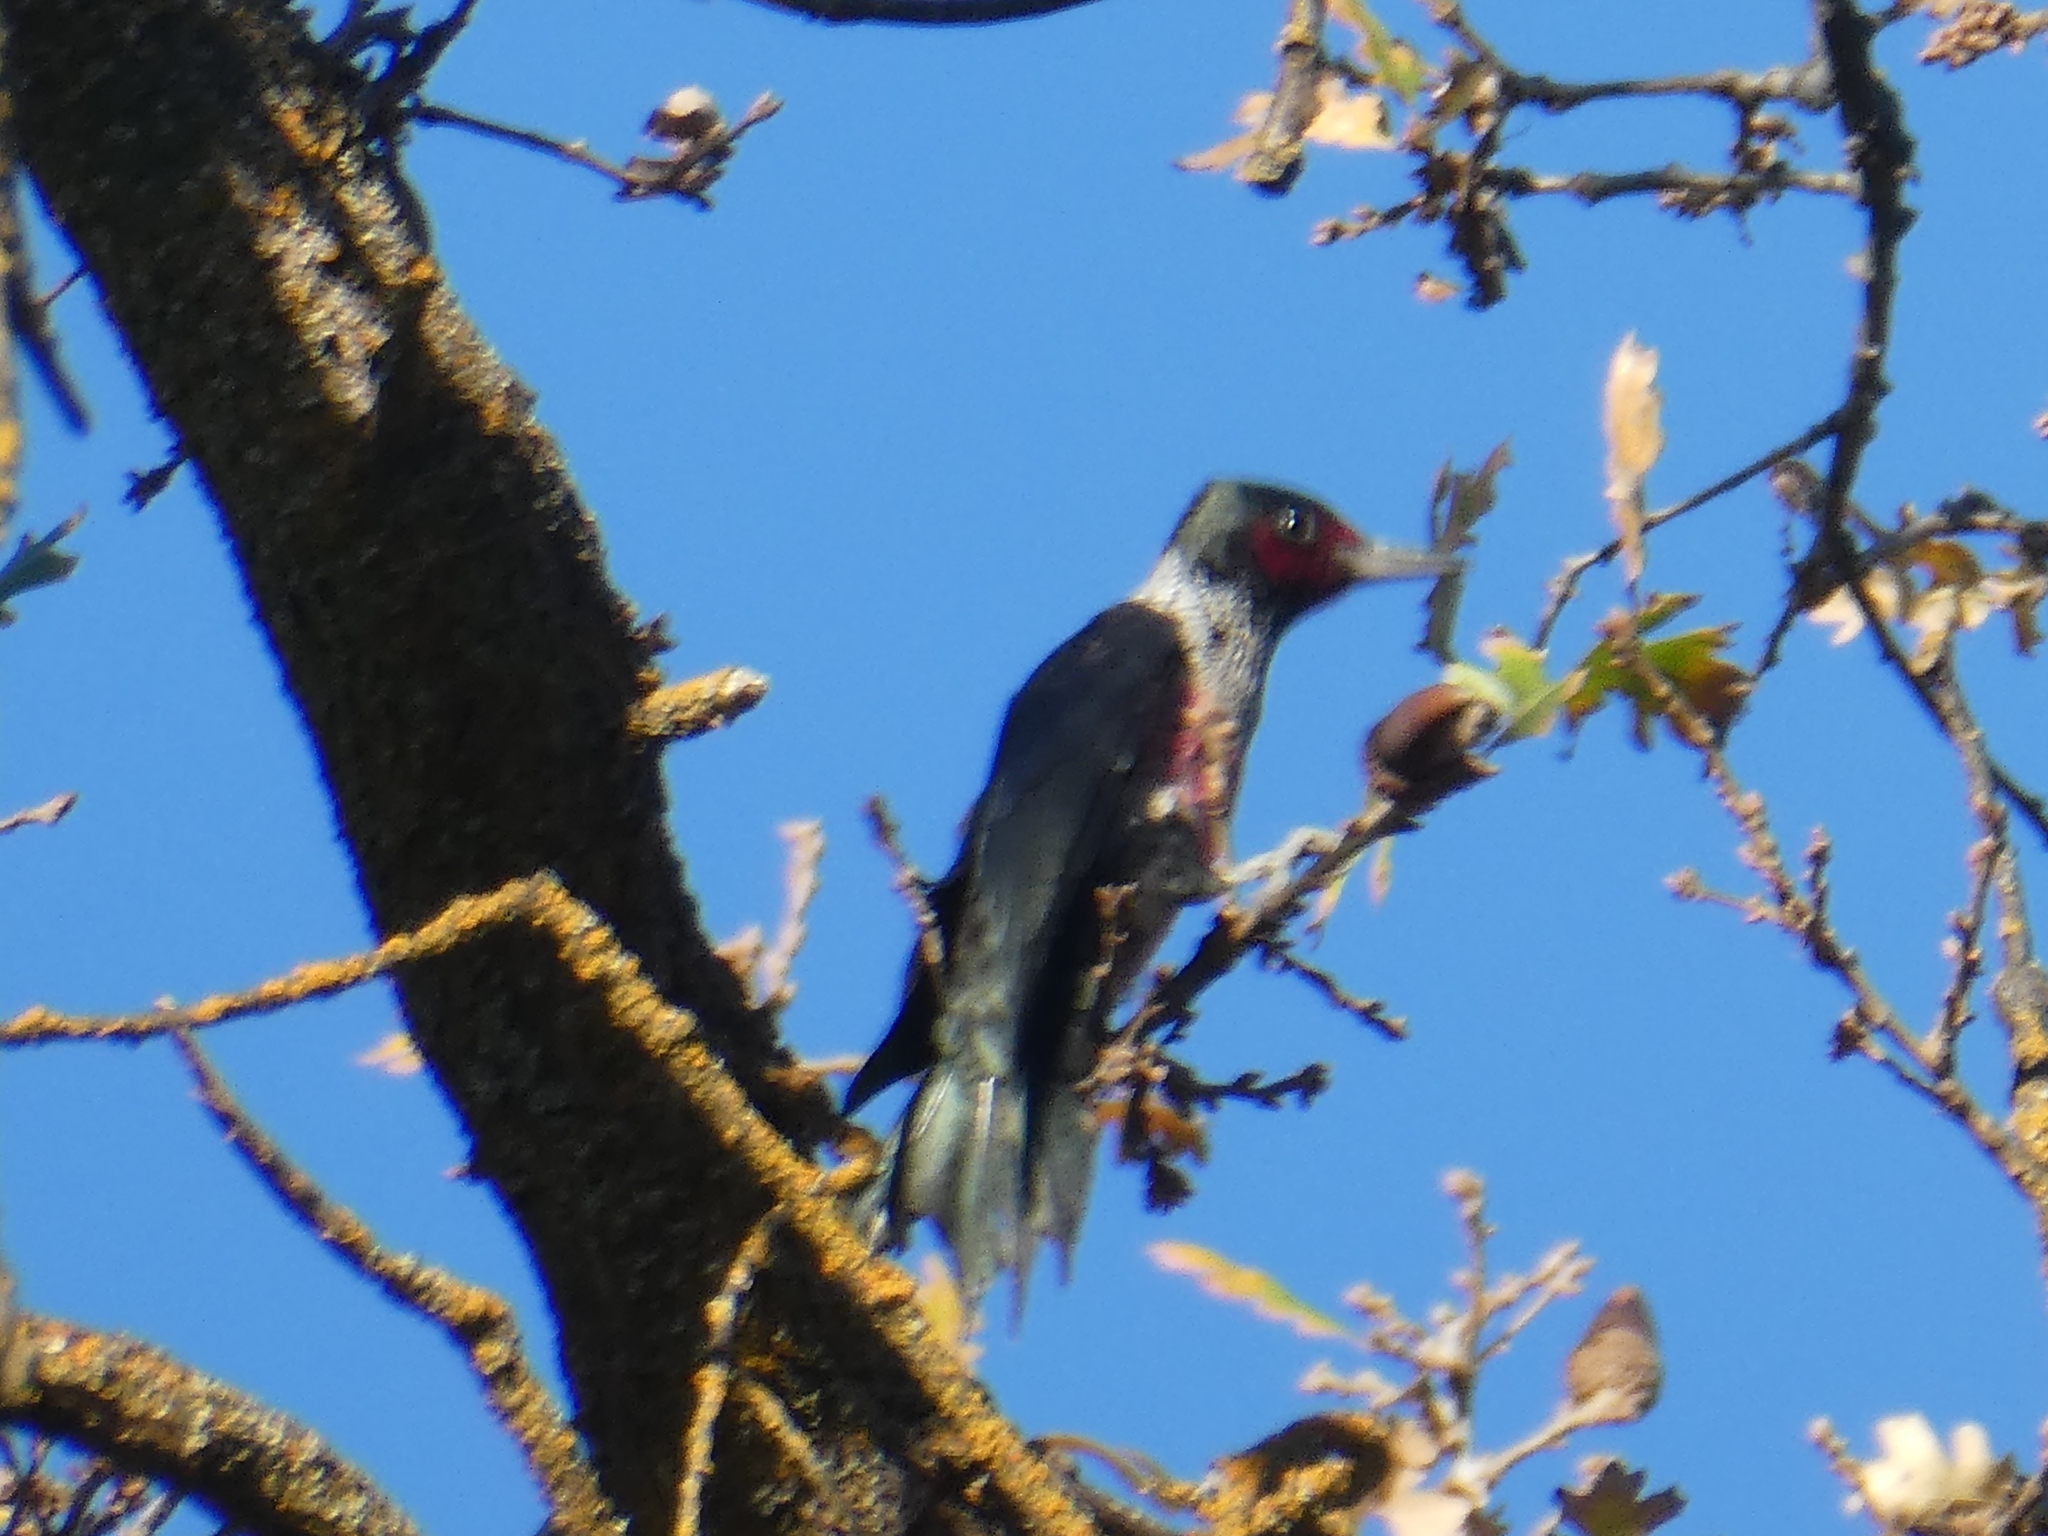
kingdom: Animalia
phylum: Chordata
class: Aves
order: Piciformes
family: Picidae
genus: Melanerpes
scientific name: Melanerpes lewis
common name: Lewis's woodpecker
